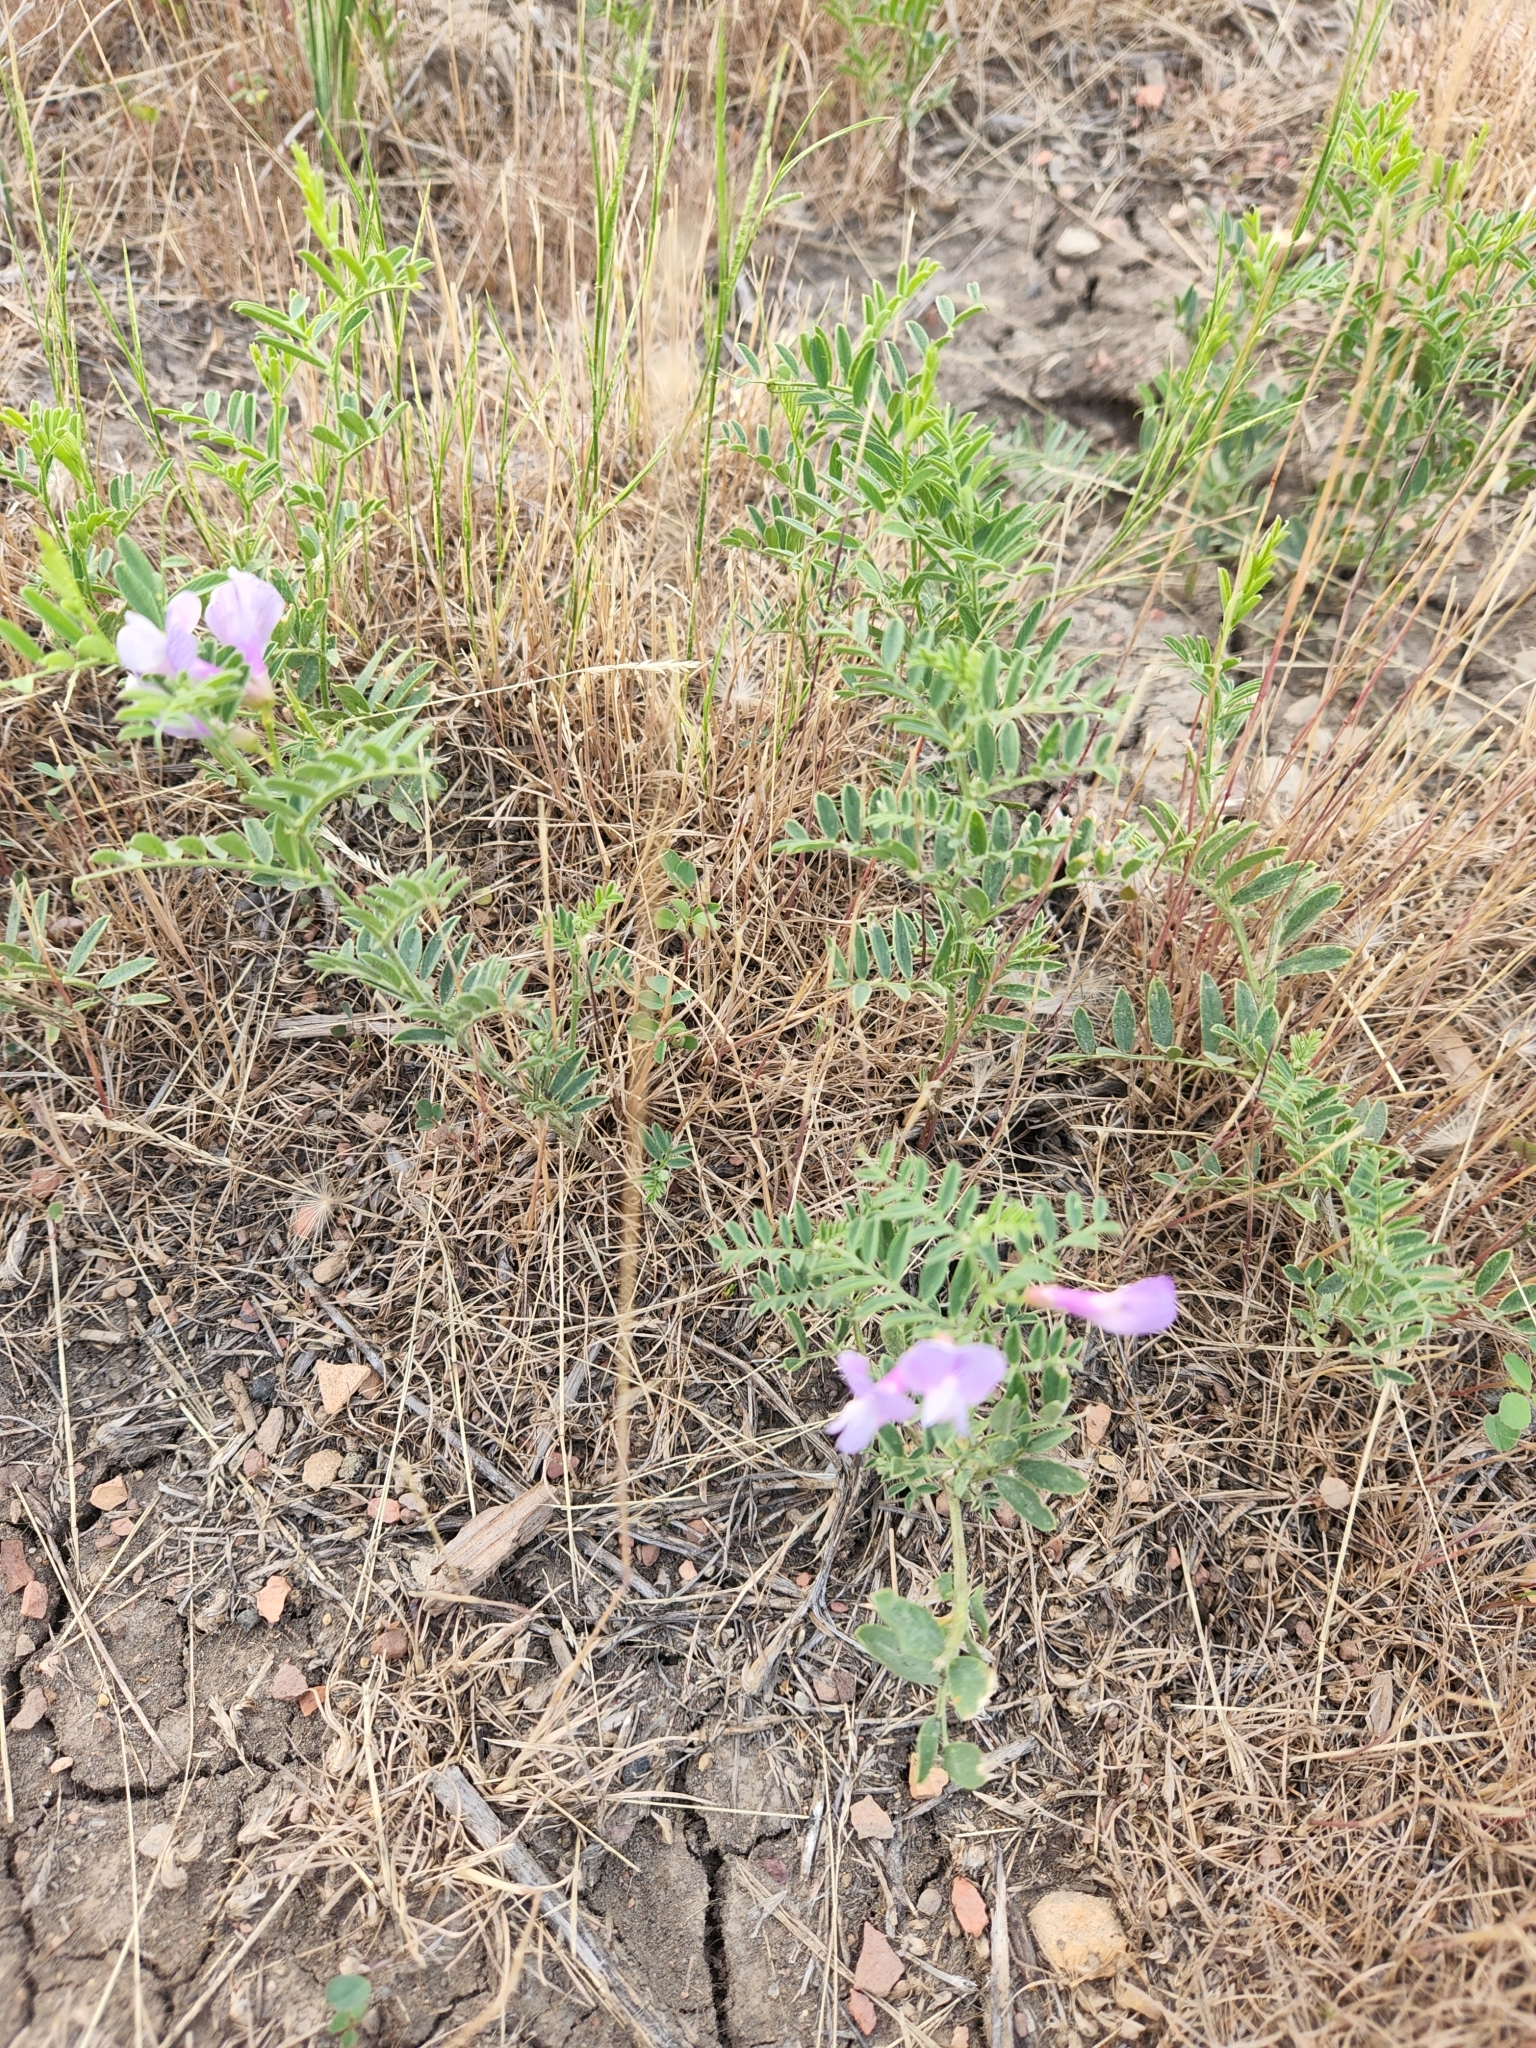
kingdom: Plantae
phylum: Tracheophyta
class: Magnoliopsida
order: Fabales
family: Fabaceae
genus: Vicia
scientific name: Vicia americana
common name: American vetch
